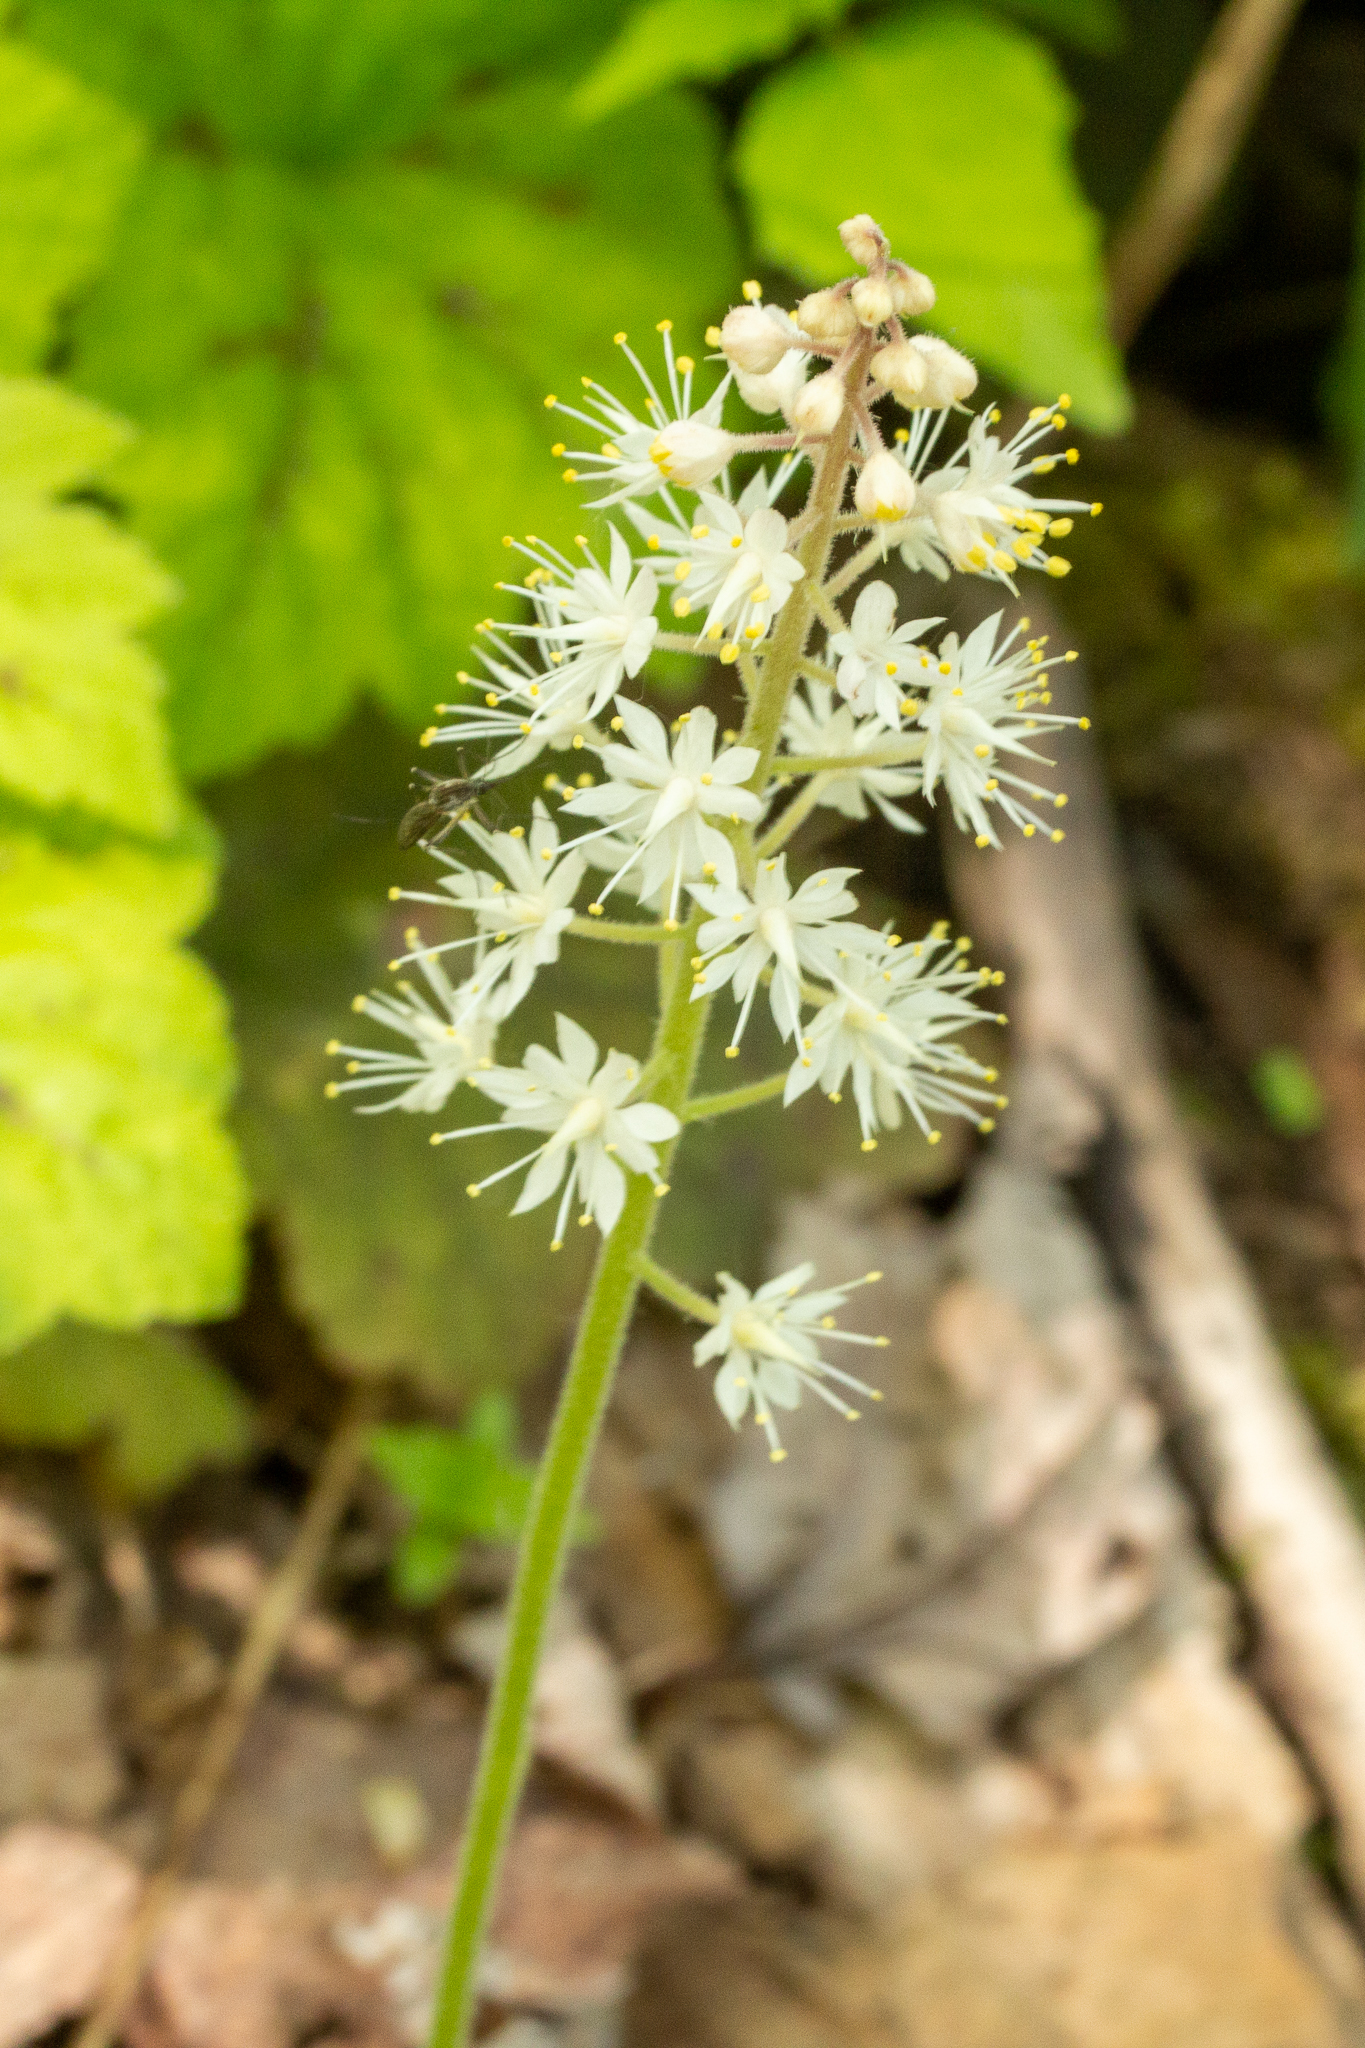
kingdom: Plantae
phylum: Tracheophyta
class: Magnoliopsida
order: Saxifragales
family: Saxifragaceae
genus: Tiarella
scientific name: Tiarella stolonifera
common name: Stoloniferous foamflower
